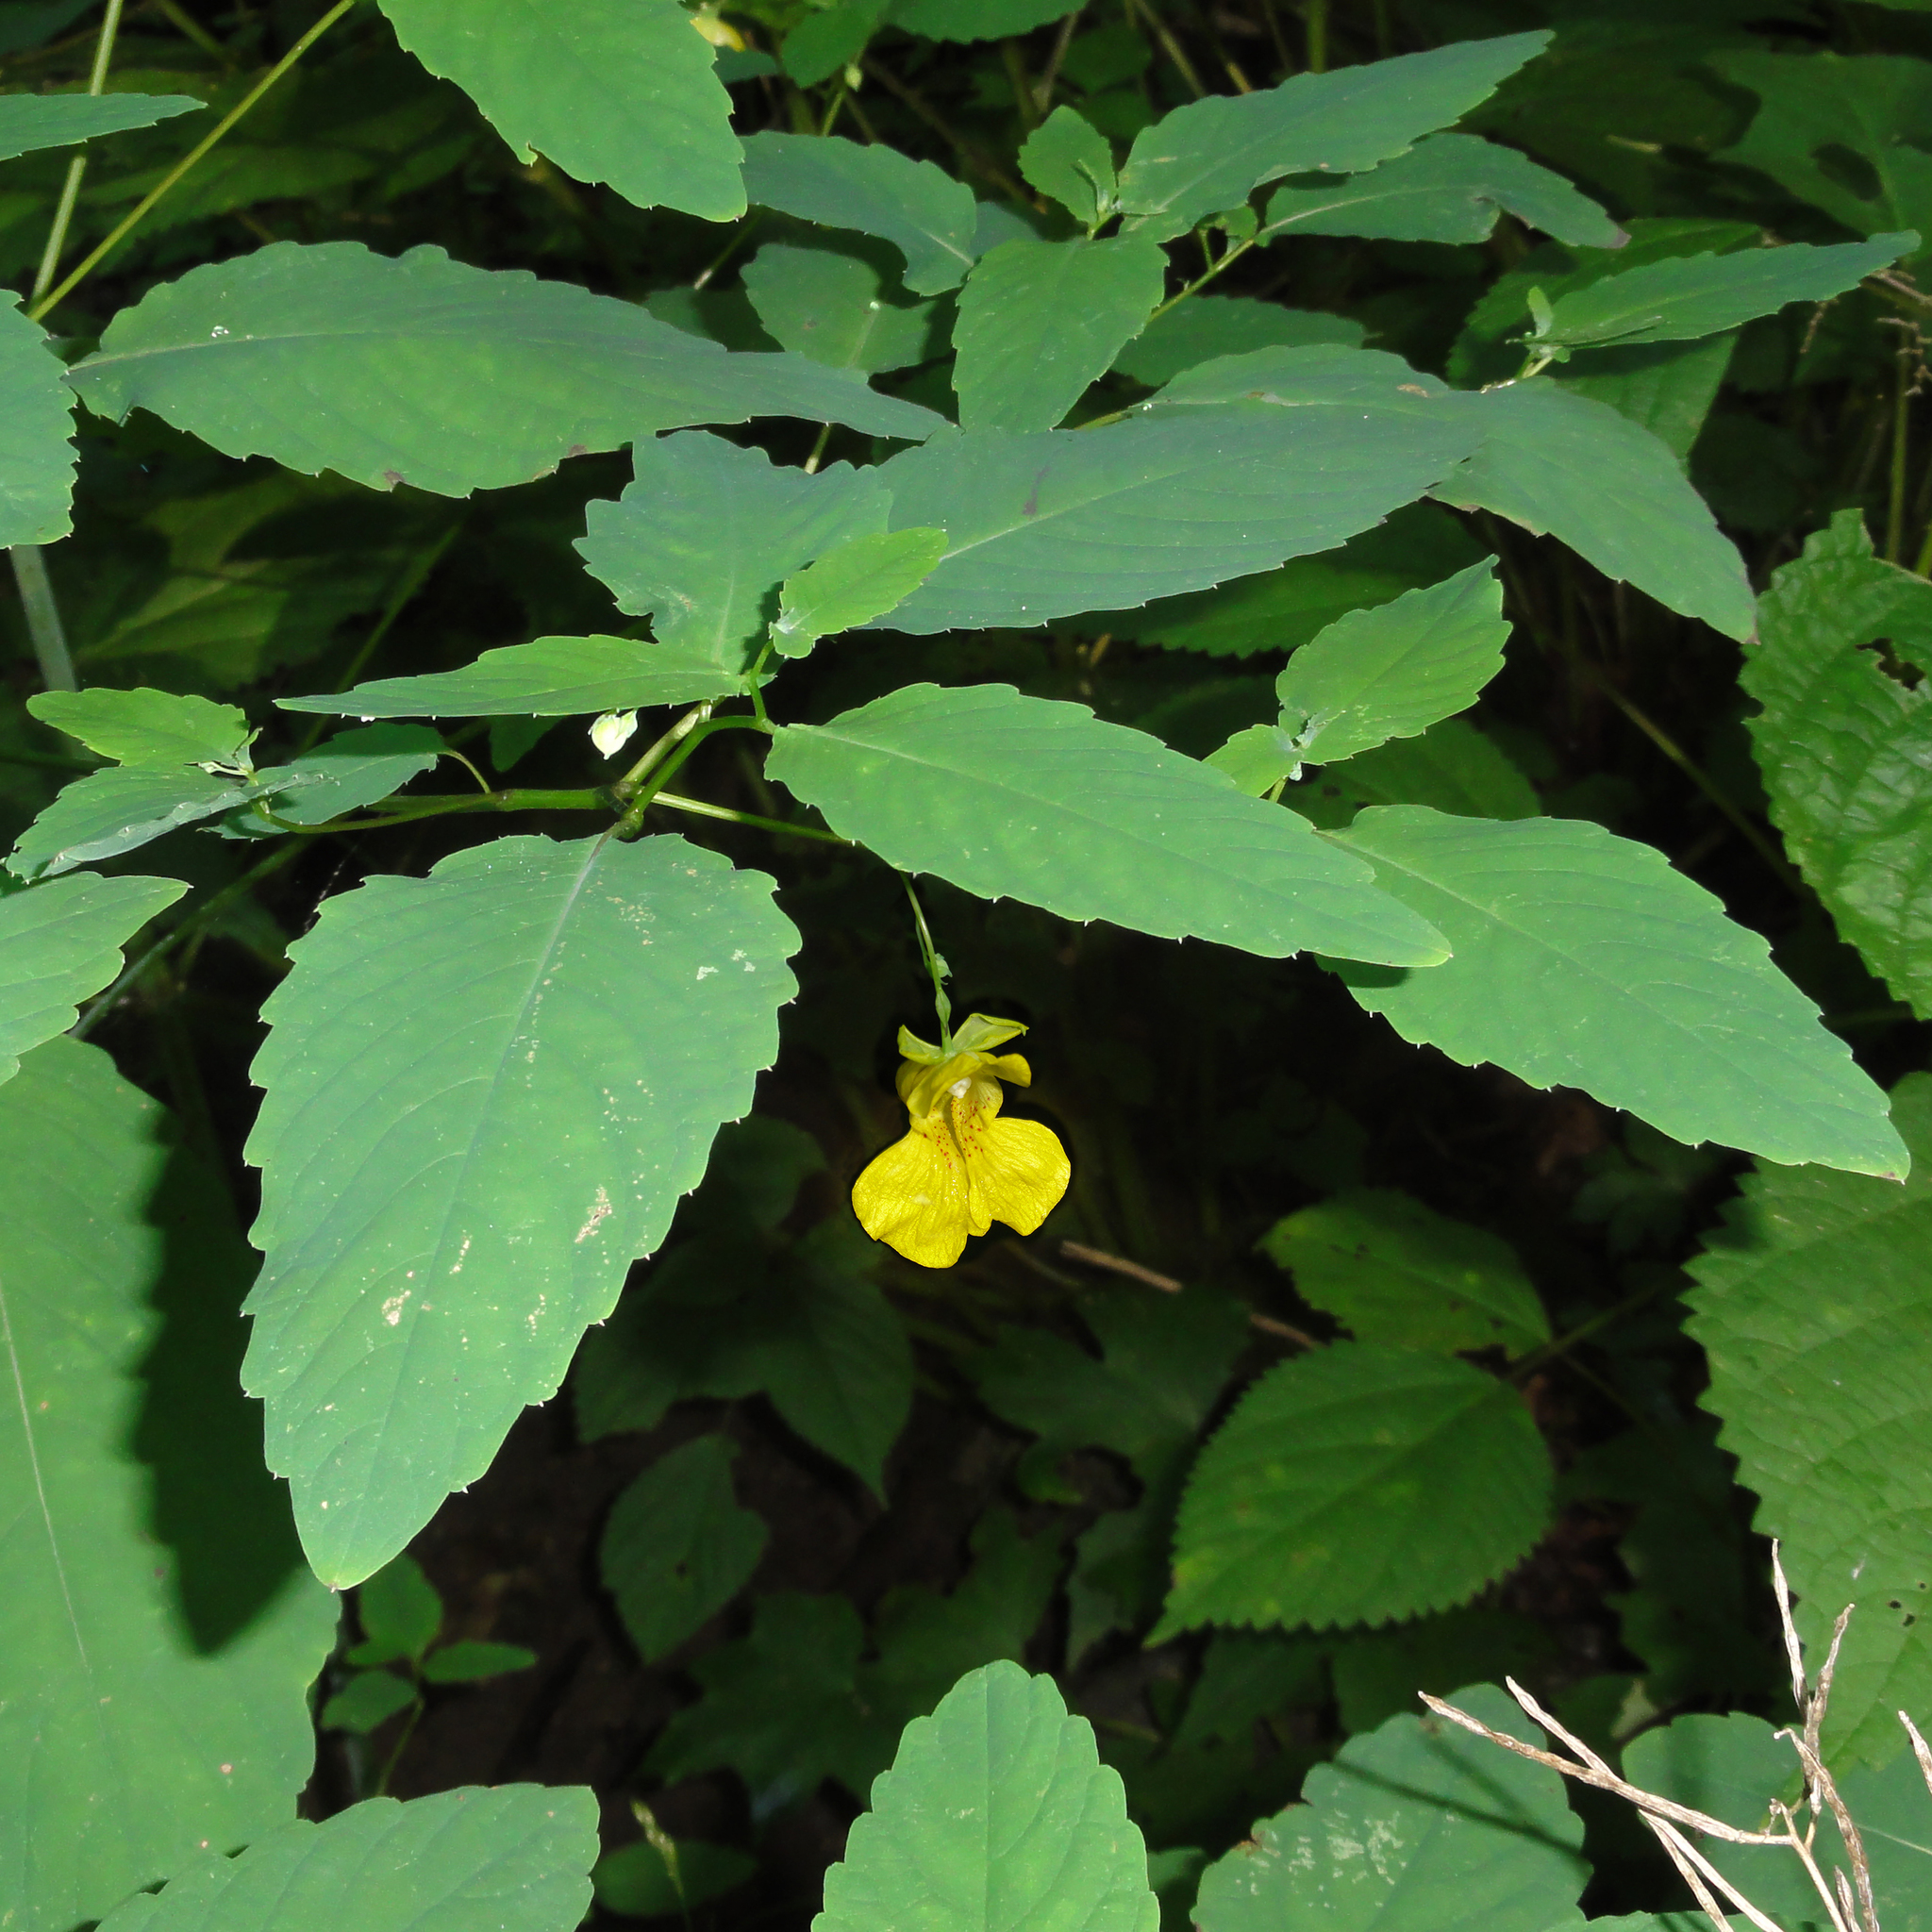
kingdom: Plantae
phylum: Tracheophyta
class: Magnoliopsida
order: Ericales
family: Balsaminaceae
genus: Impatiens
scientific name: Impatiens pallida
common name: Pale snapweed
